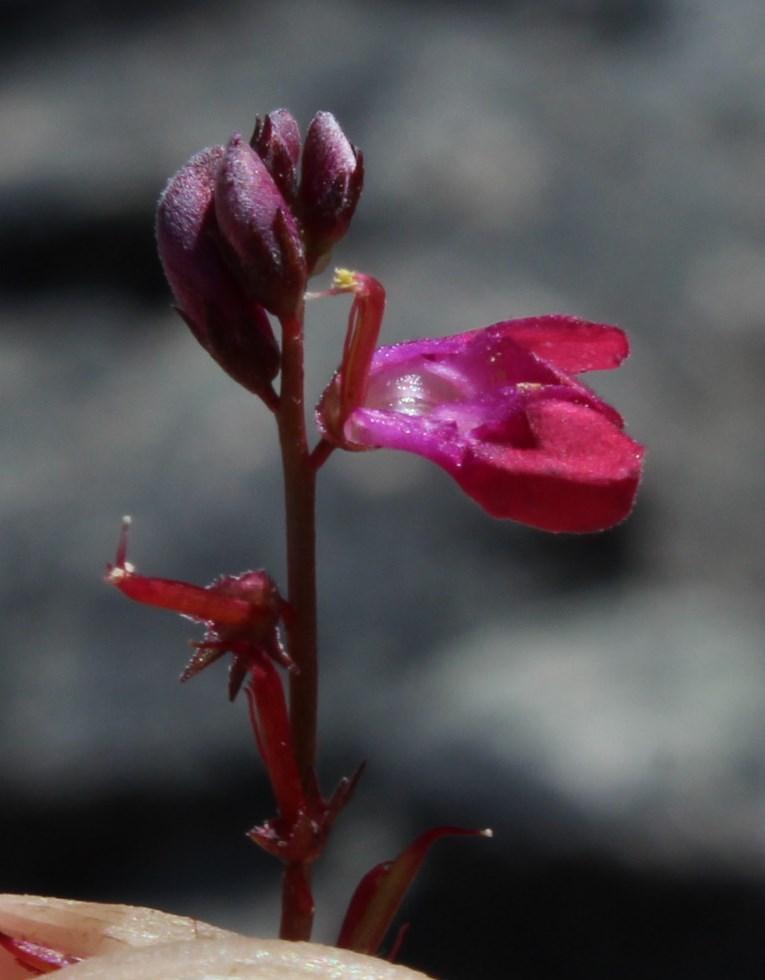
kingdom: Plantae
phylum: Tracheophyta
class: Magnoliopsida
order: Fabales
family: Fabaceae
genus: Indigofera
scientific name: Indigofera humifusa
